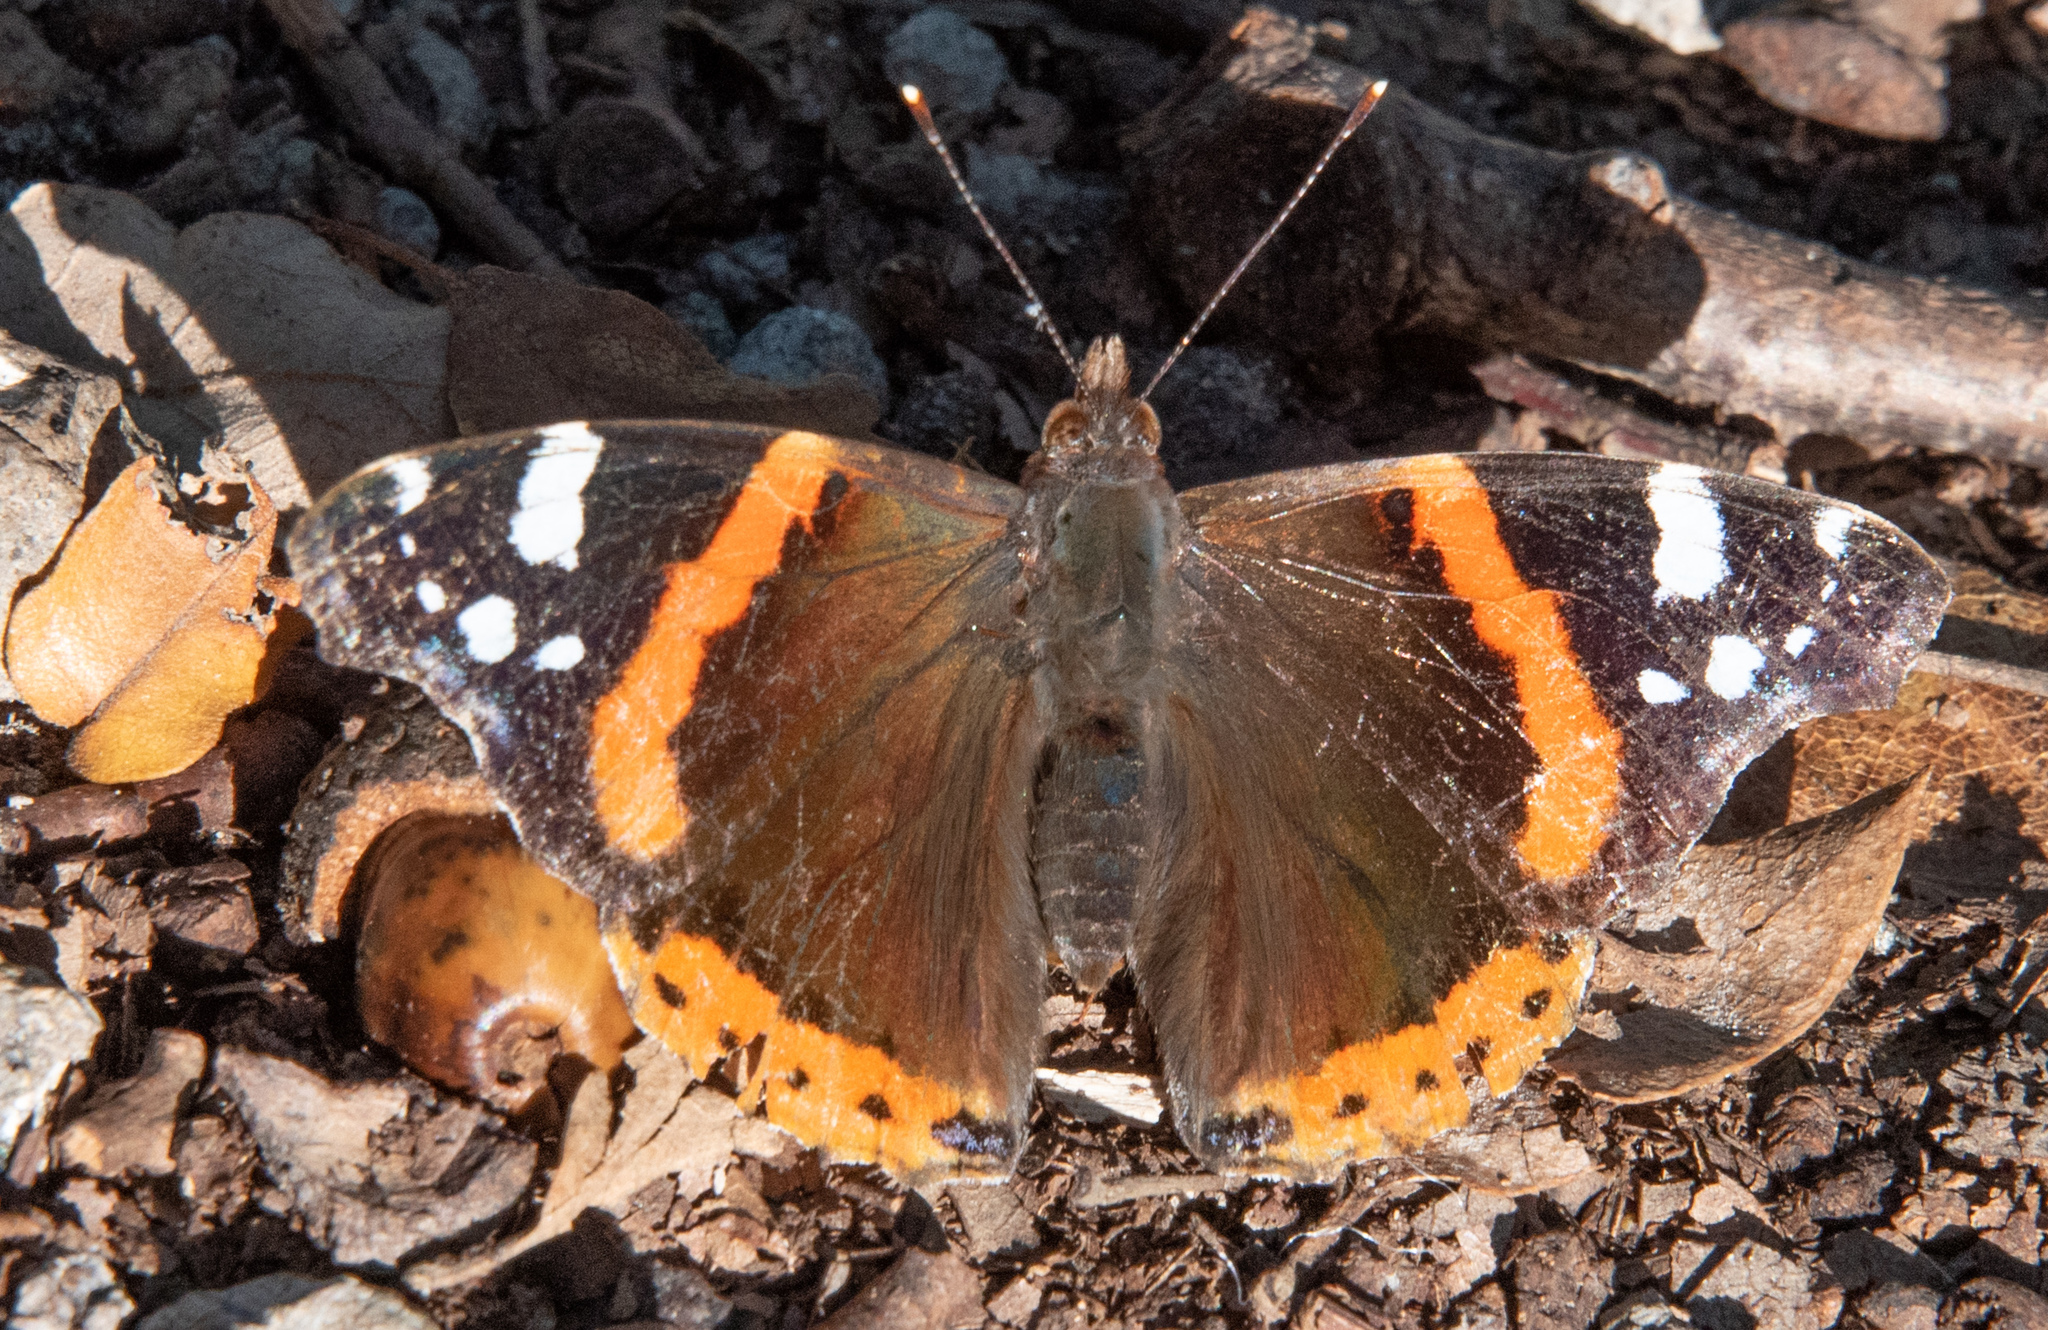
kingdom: Animalia
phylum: Arthropoda
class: Insecta
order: Lepidoptera
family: Nymphalidae
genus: Vanessa
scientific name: Vanessa atalanta
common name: Red admiral
